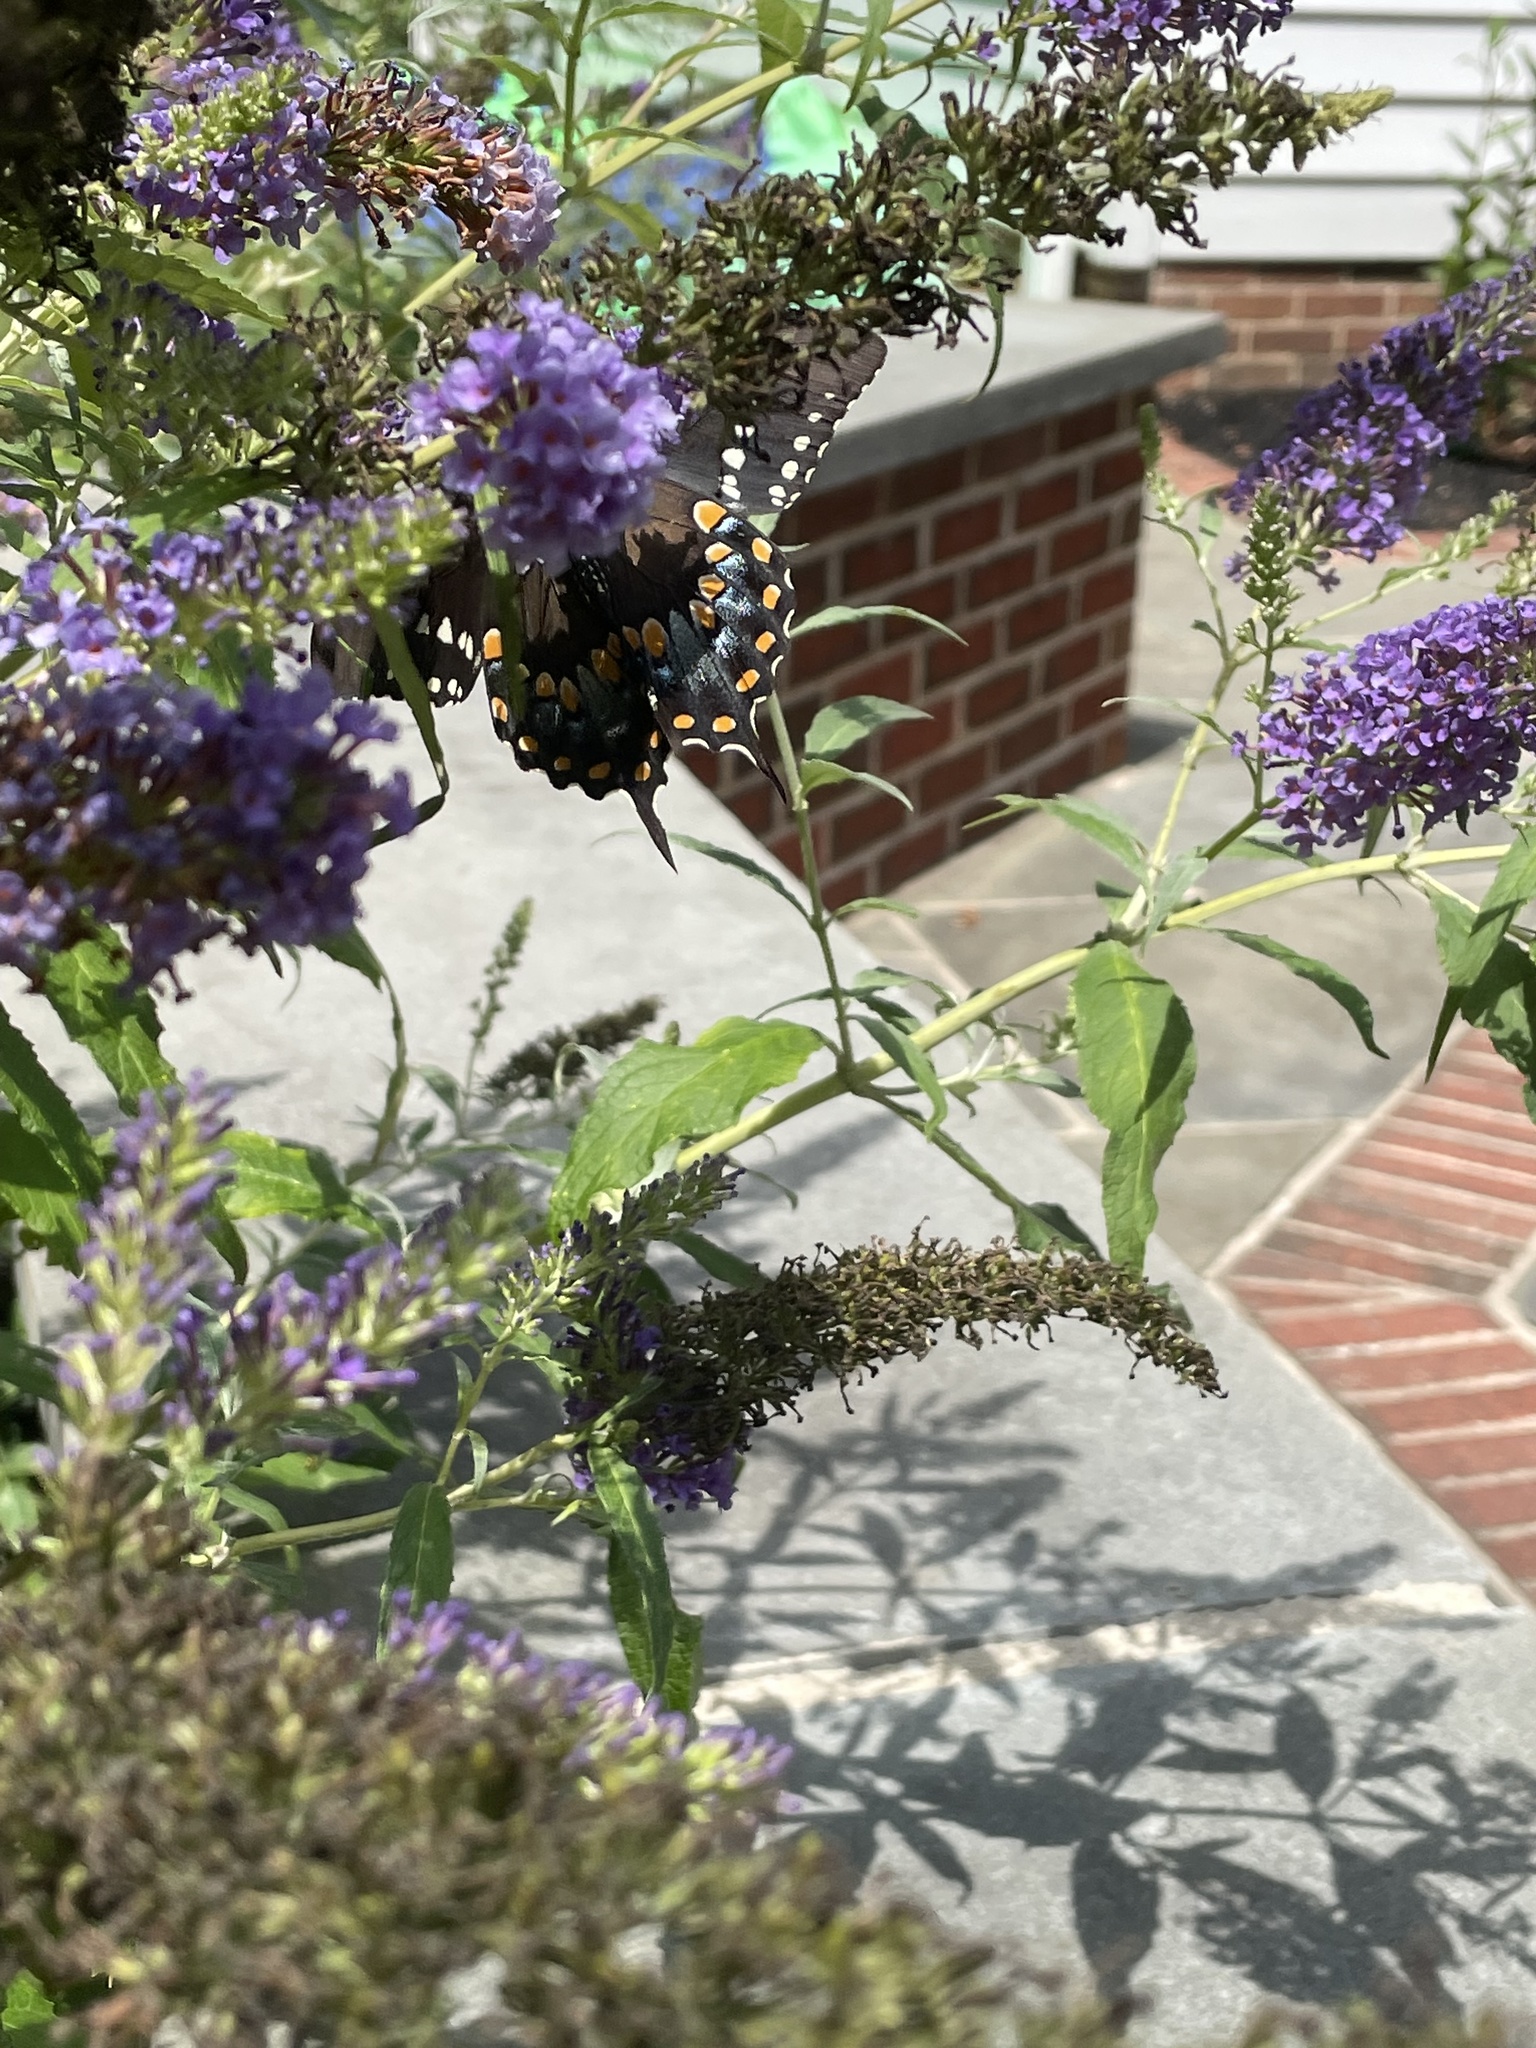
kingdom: Animalia
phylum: Arthropoda
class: Insecta
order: Lepidoptera
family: Papilionidae
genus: Papilio
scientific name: Papilio glaucus
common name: Tiger swallowtail
